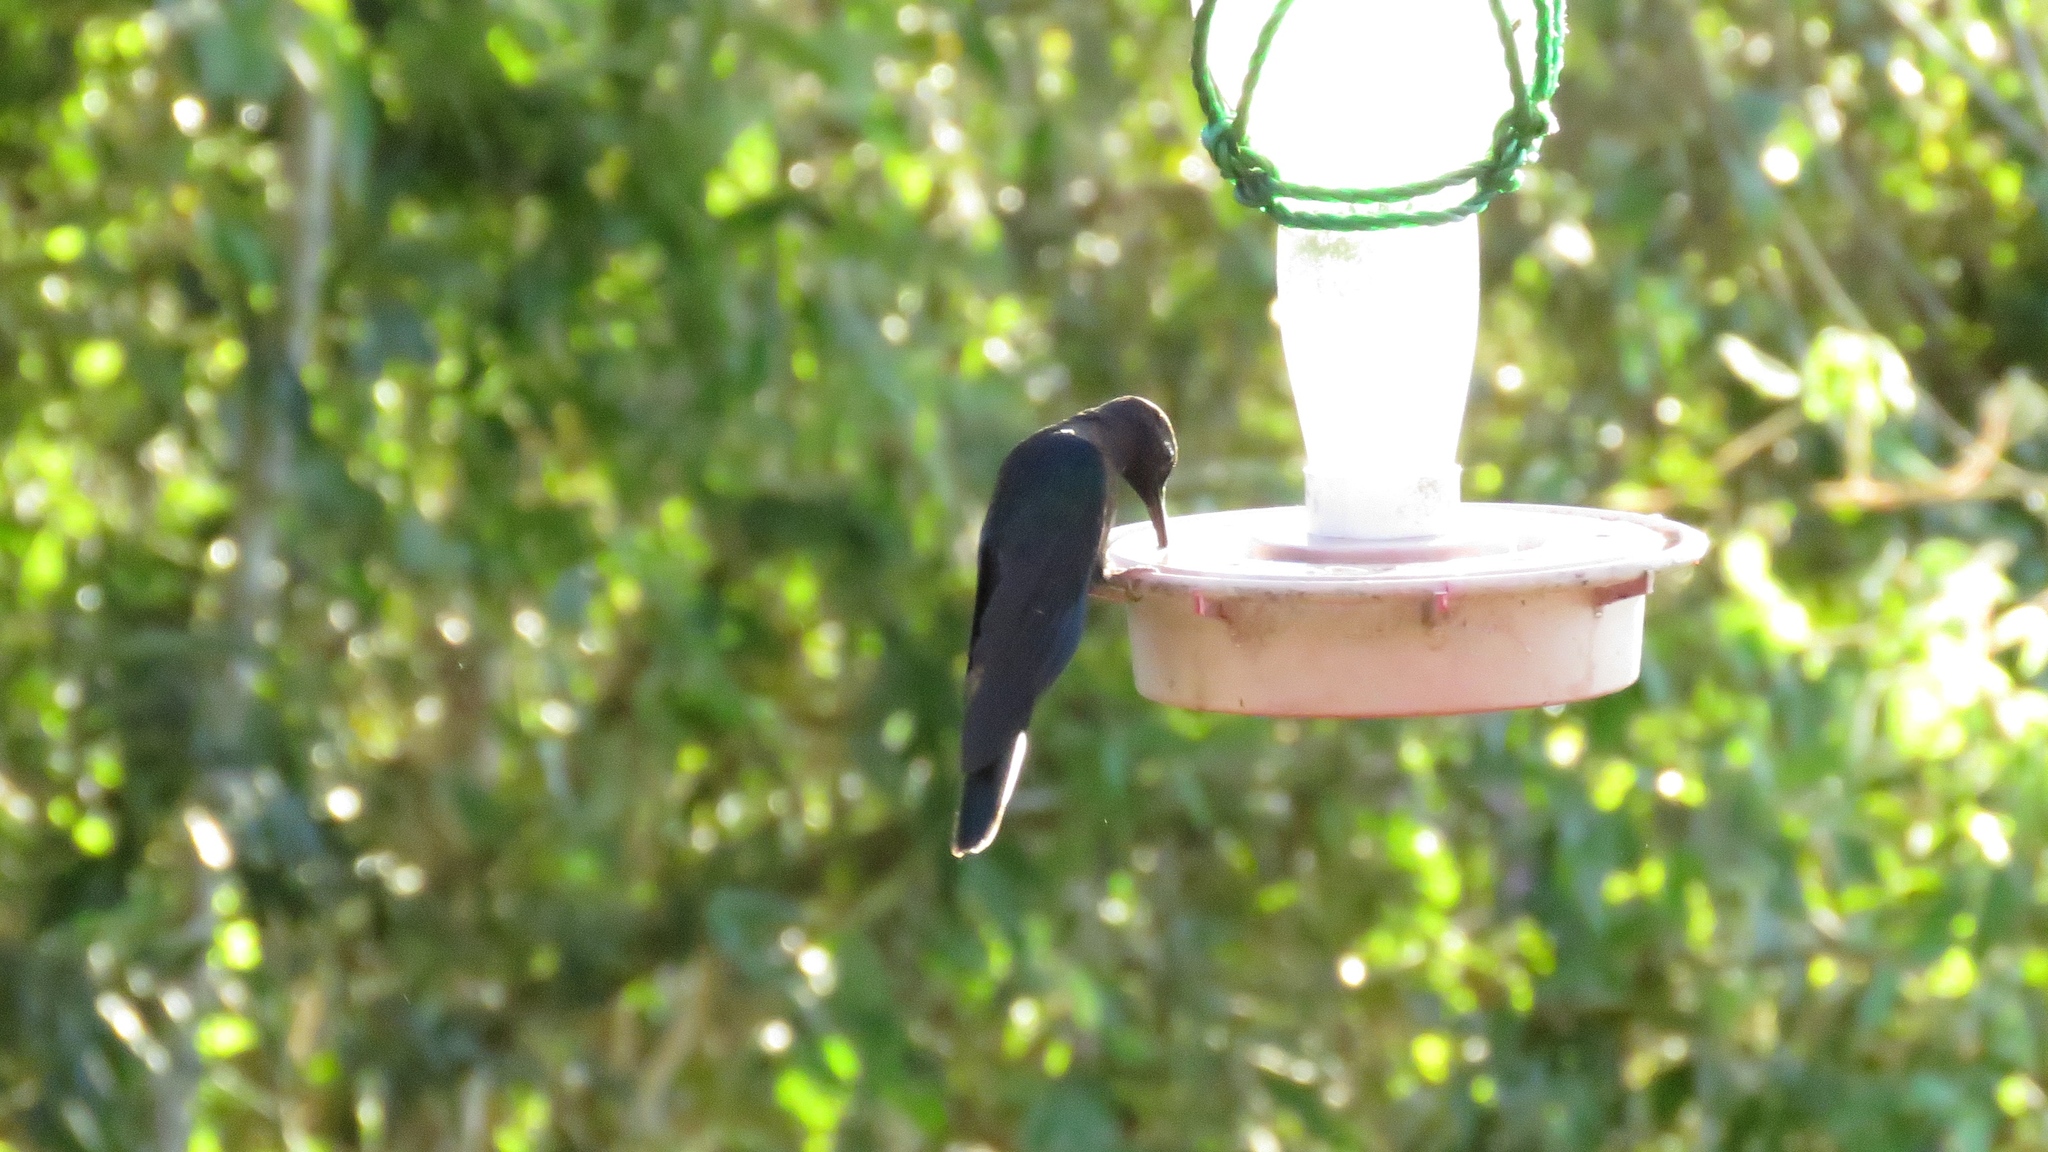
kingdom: Animalia
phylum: Chordata
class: Aves
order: Apodiformes
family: Trochilidae
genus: Campylopterus
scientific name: Campylopterus hemileucurus
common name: Violet sabrewing
